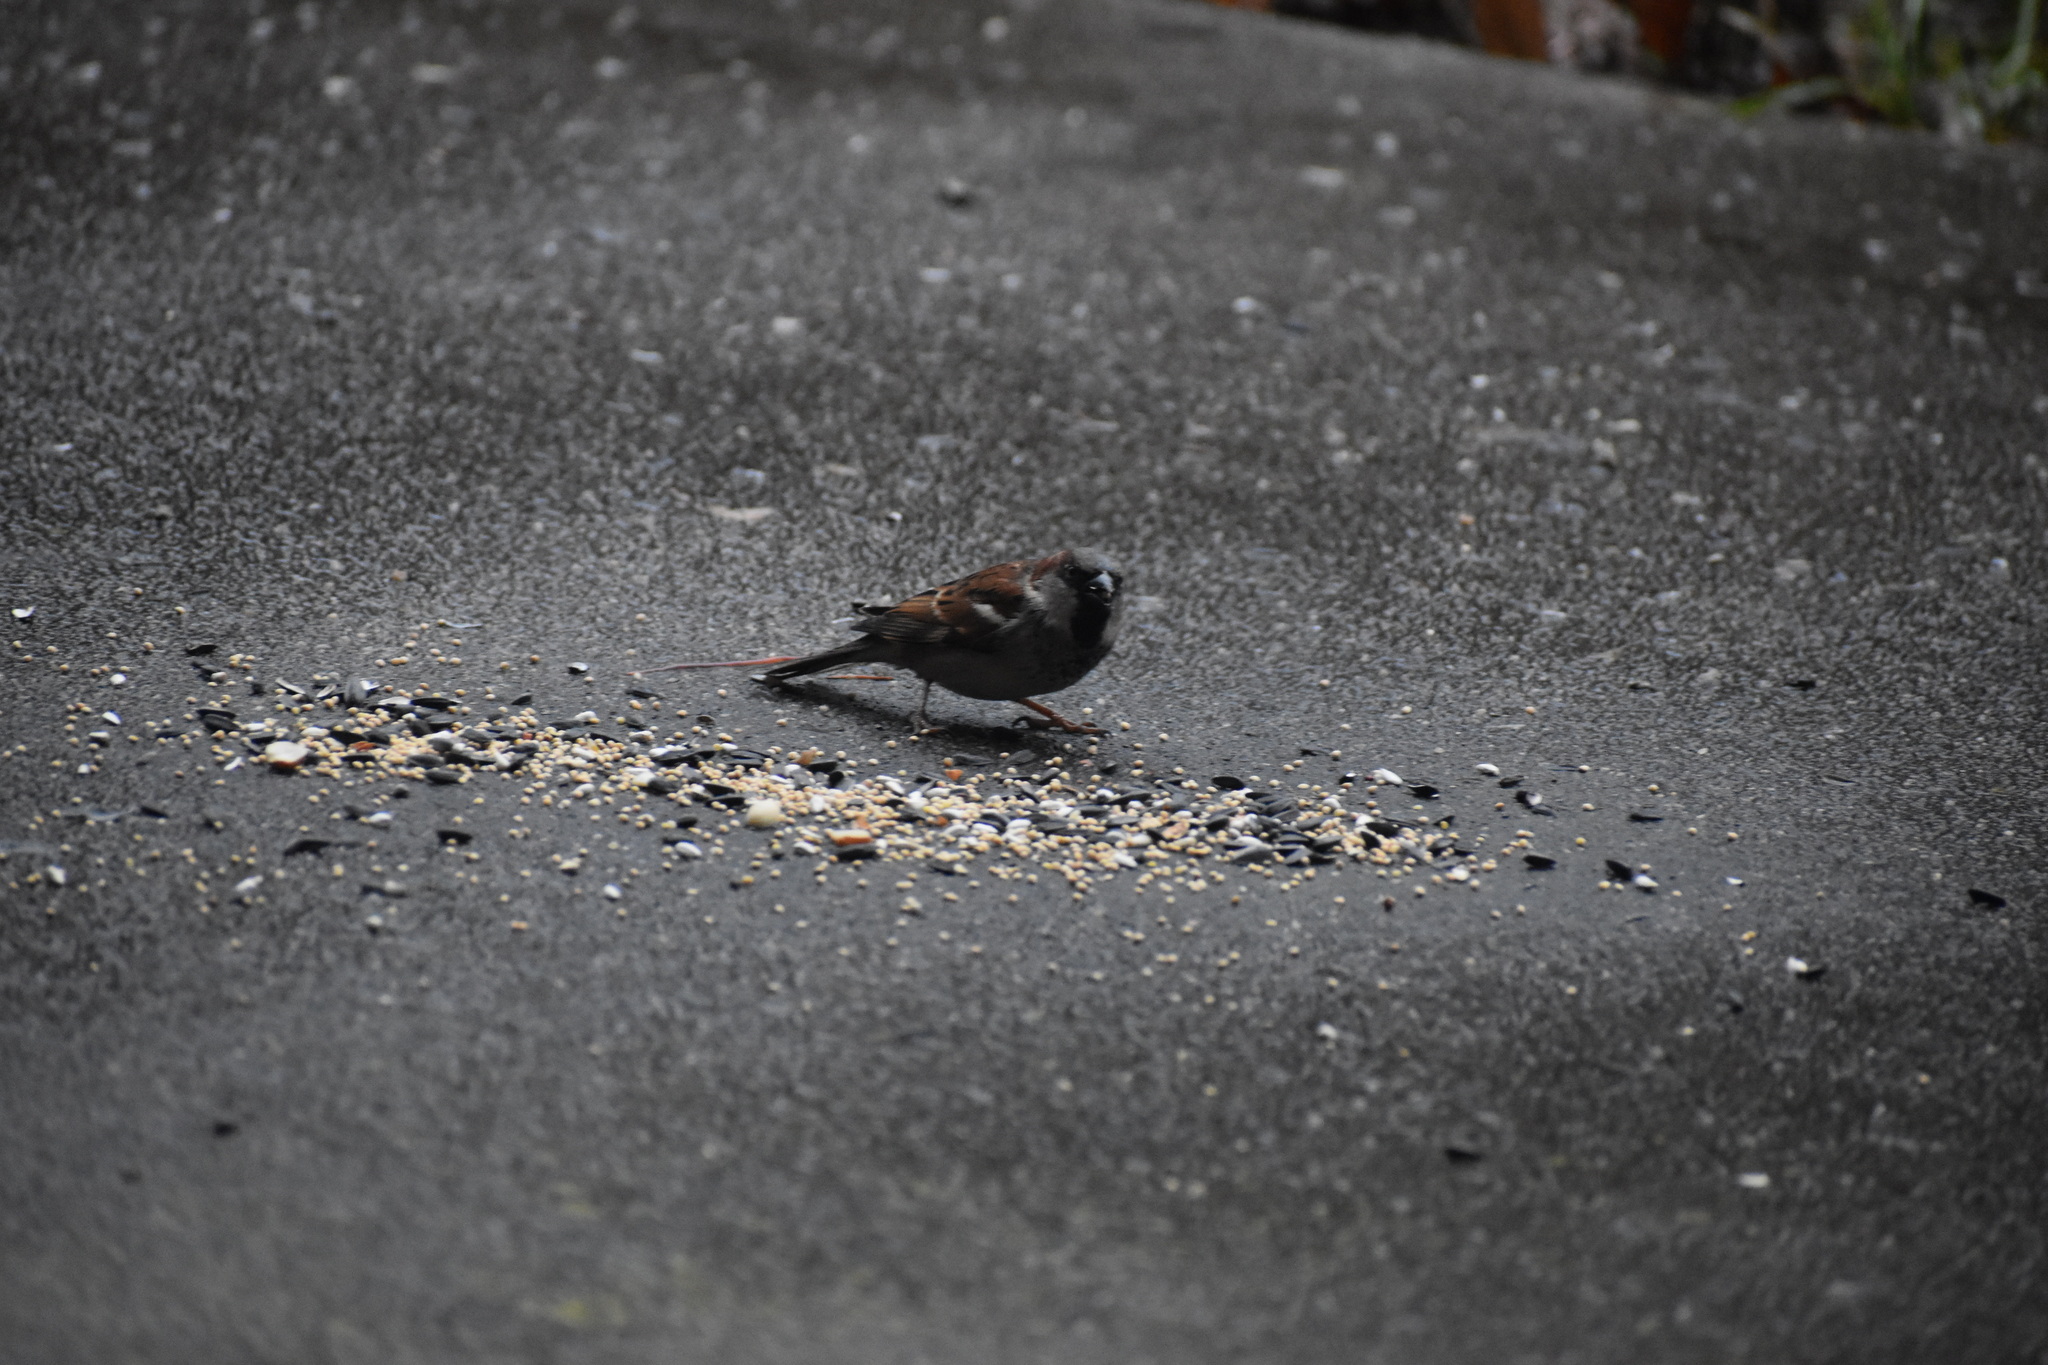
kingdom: Animalia
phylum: Chordata
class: Aves
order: Passeriformes
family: Passeridae
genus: Passer
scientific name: Passer domesticus
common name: House sparrow
